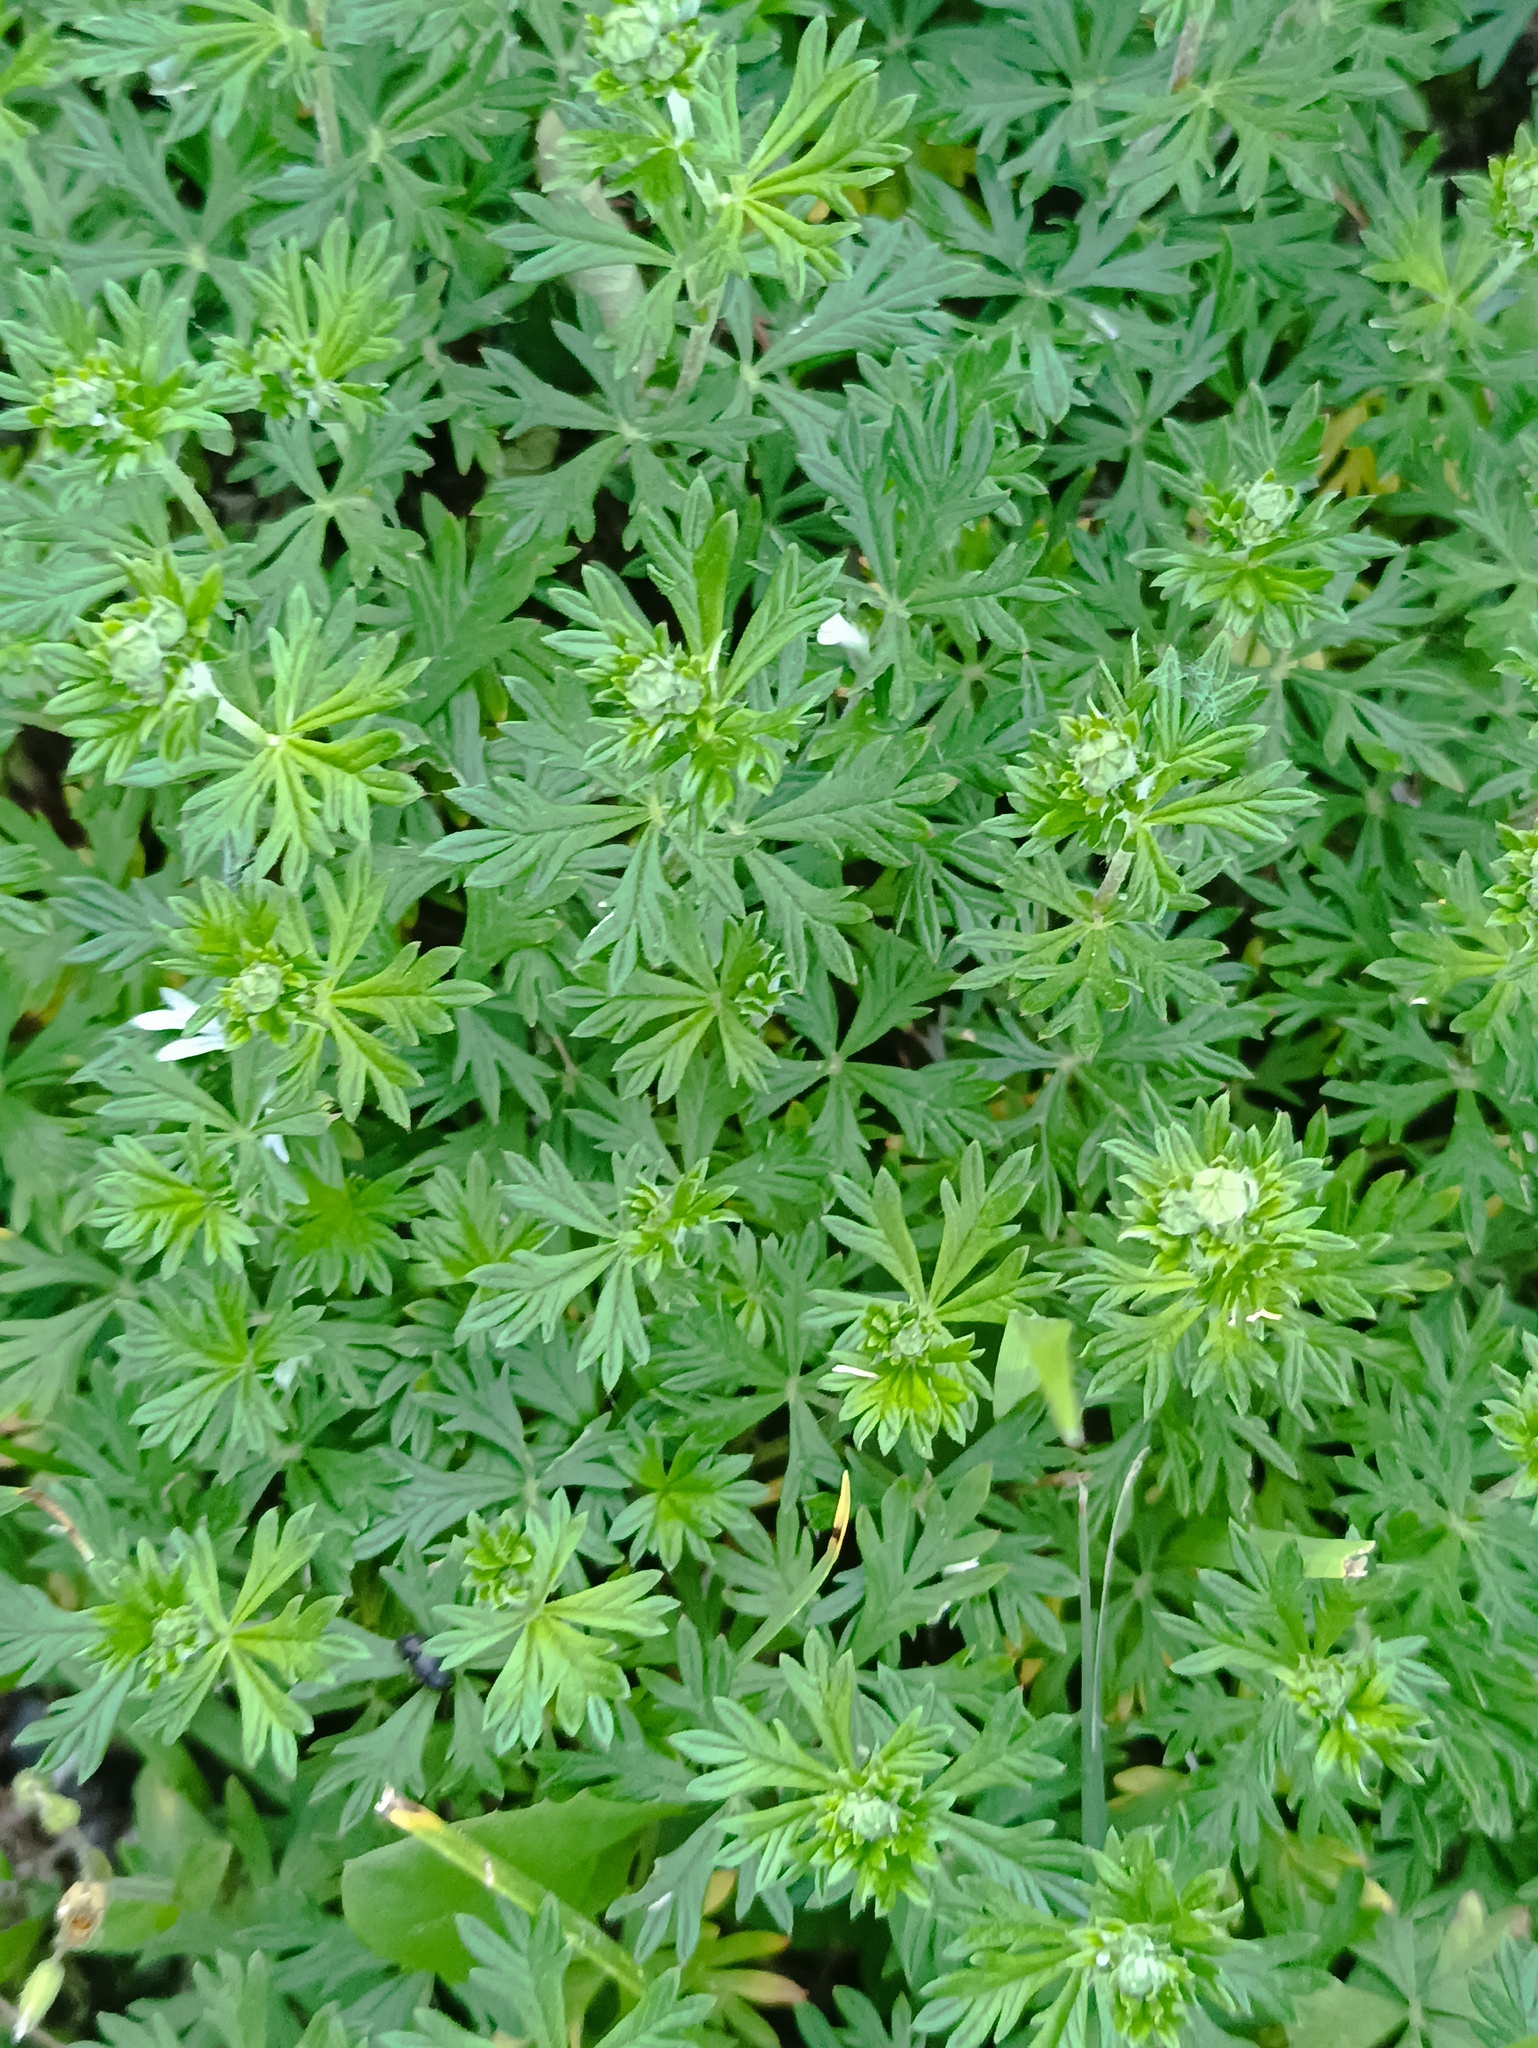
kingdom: Plantae
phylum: Tracheophyta
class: Magnoliopsida
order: Rosales
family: Rosaceae
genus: Potentilla
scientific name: Potentilla argentea
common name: Hoary cinquefoil
